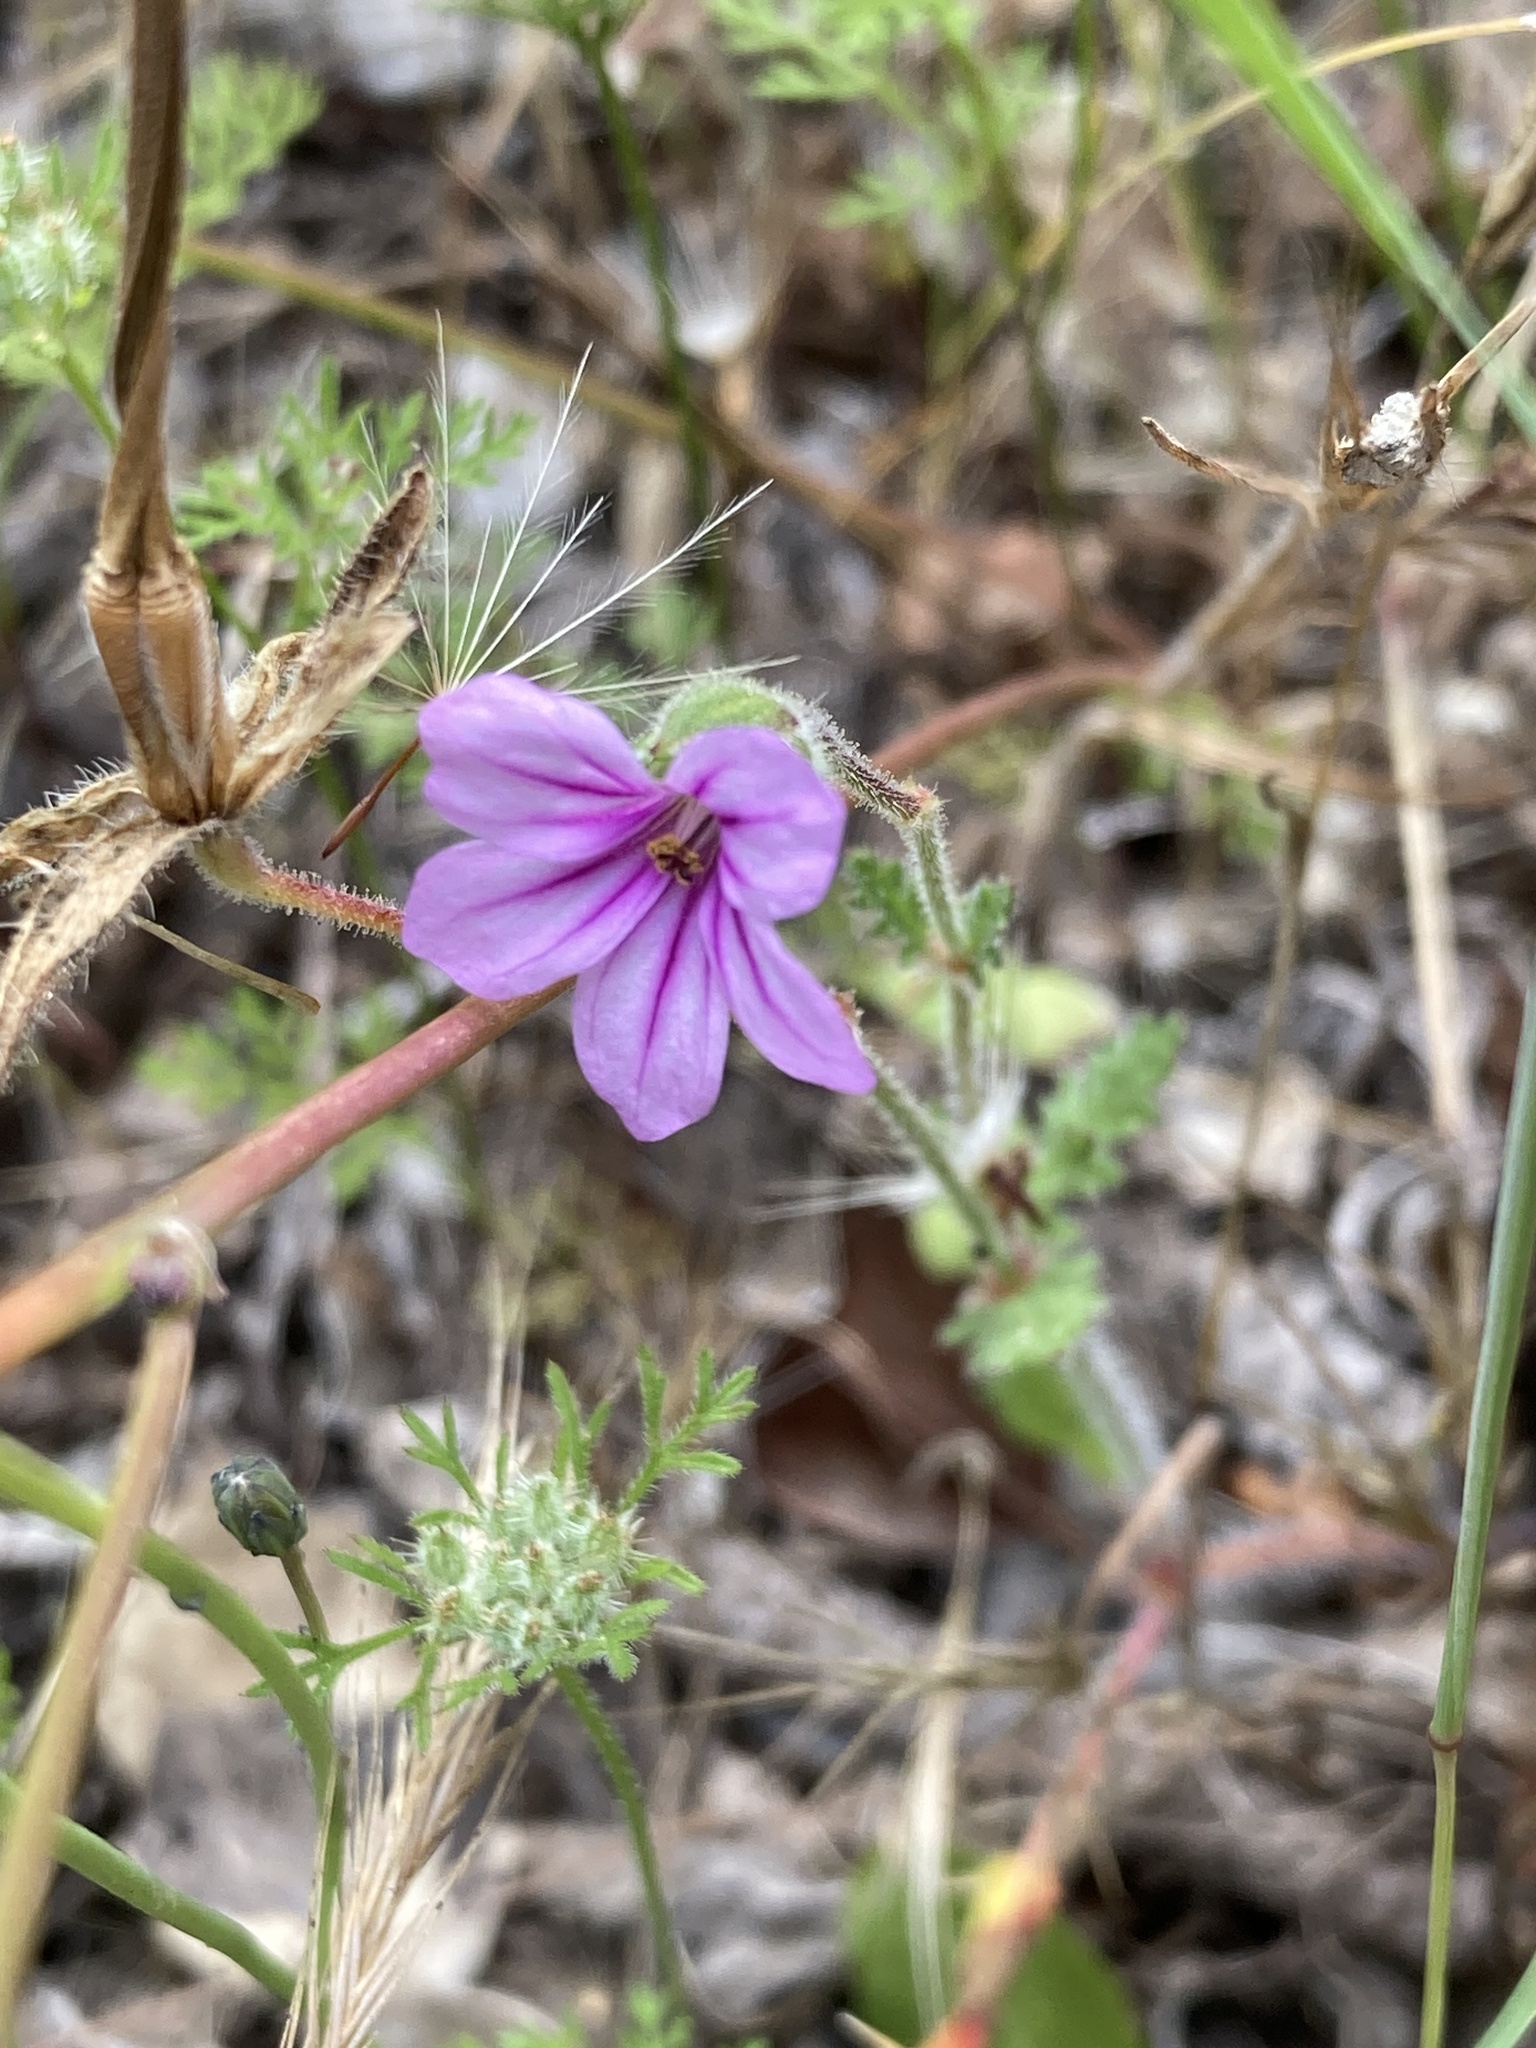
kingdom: Plantae
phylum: Tracheophyta
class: Magnoliopsida
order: Geraniales
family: Geraniaceae
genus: Erodium
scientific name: Erodium botrys
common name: Mediterranean stork's-bill
